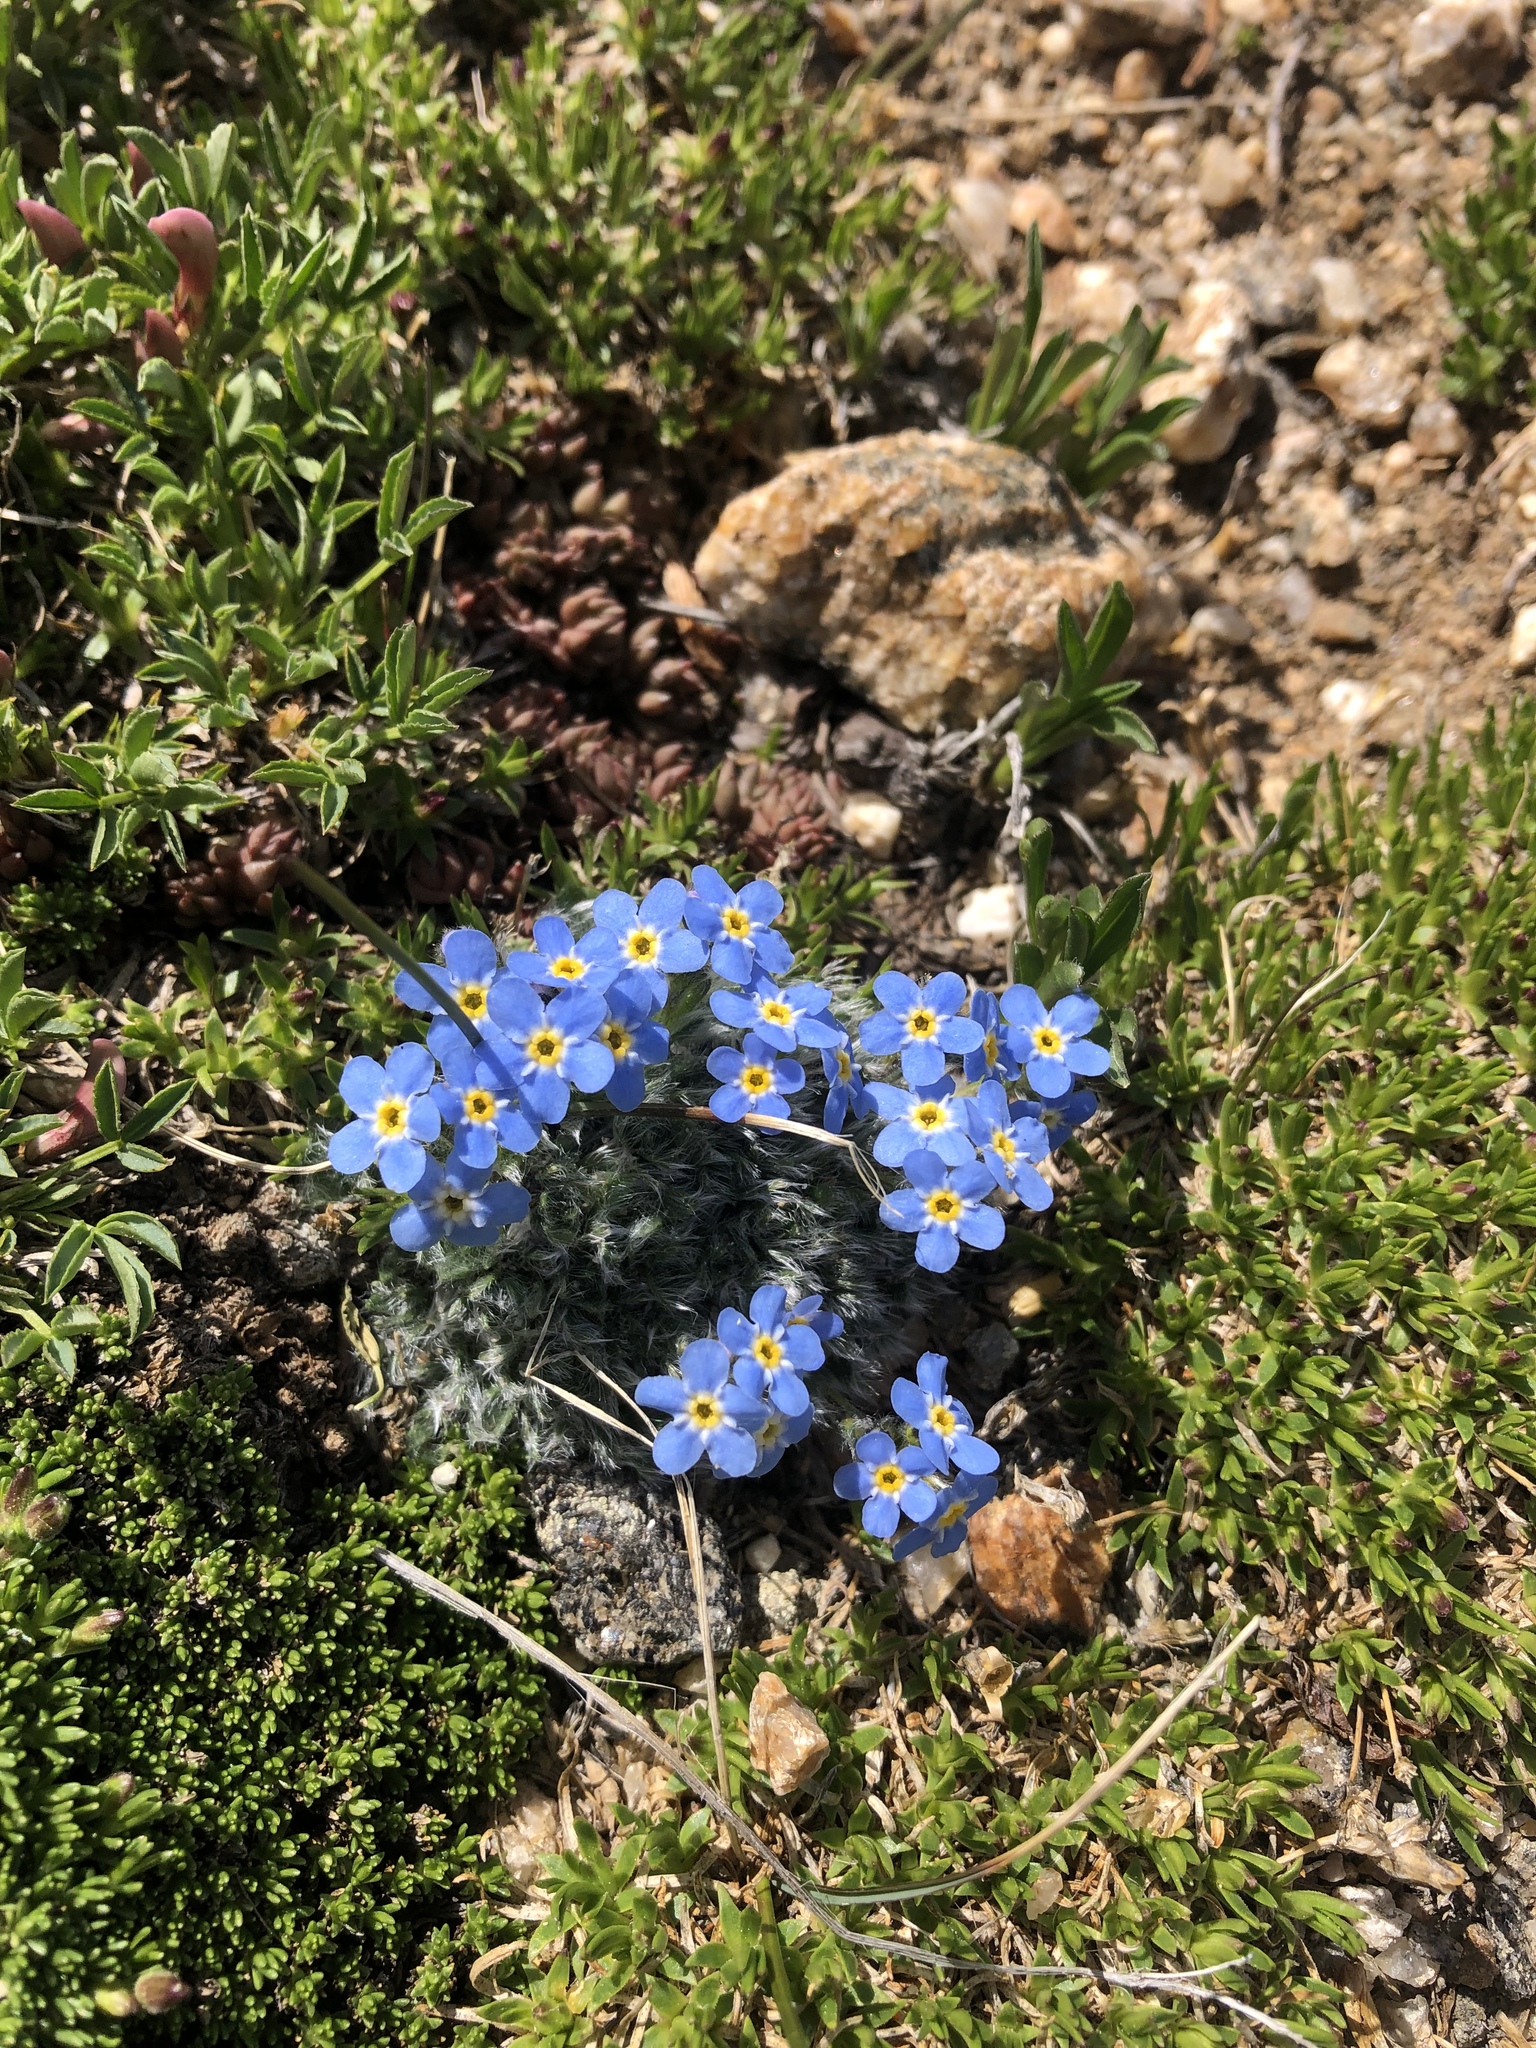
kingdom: Plantae
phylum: Tracheophyta
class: Magnoliopsida
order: Boraginales
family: Boraginaceae
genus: Eritrichium
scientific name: Eritrichium argenteum
